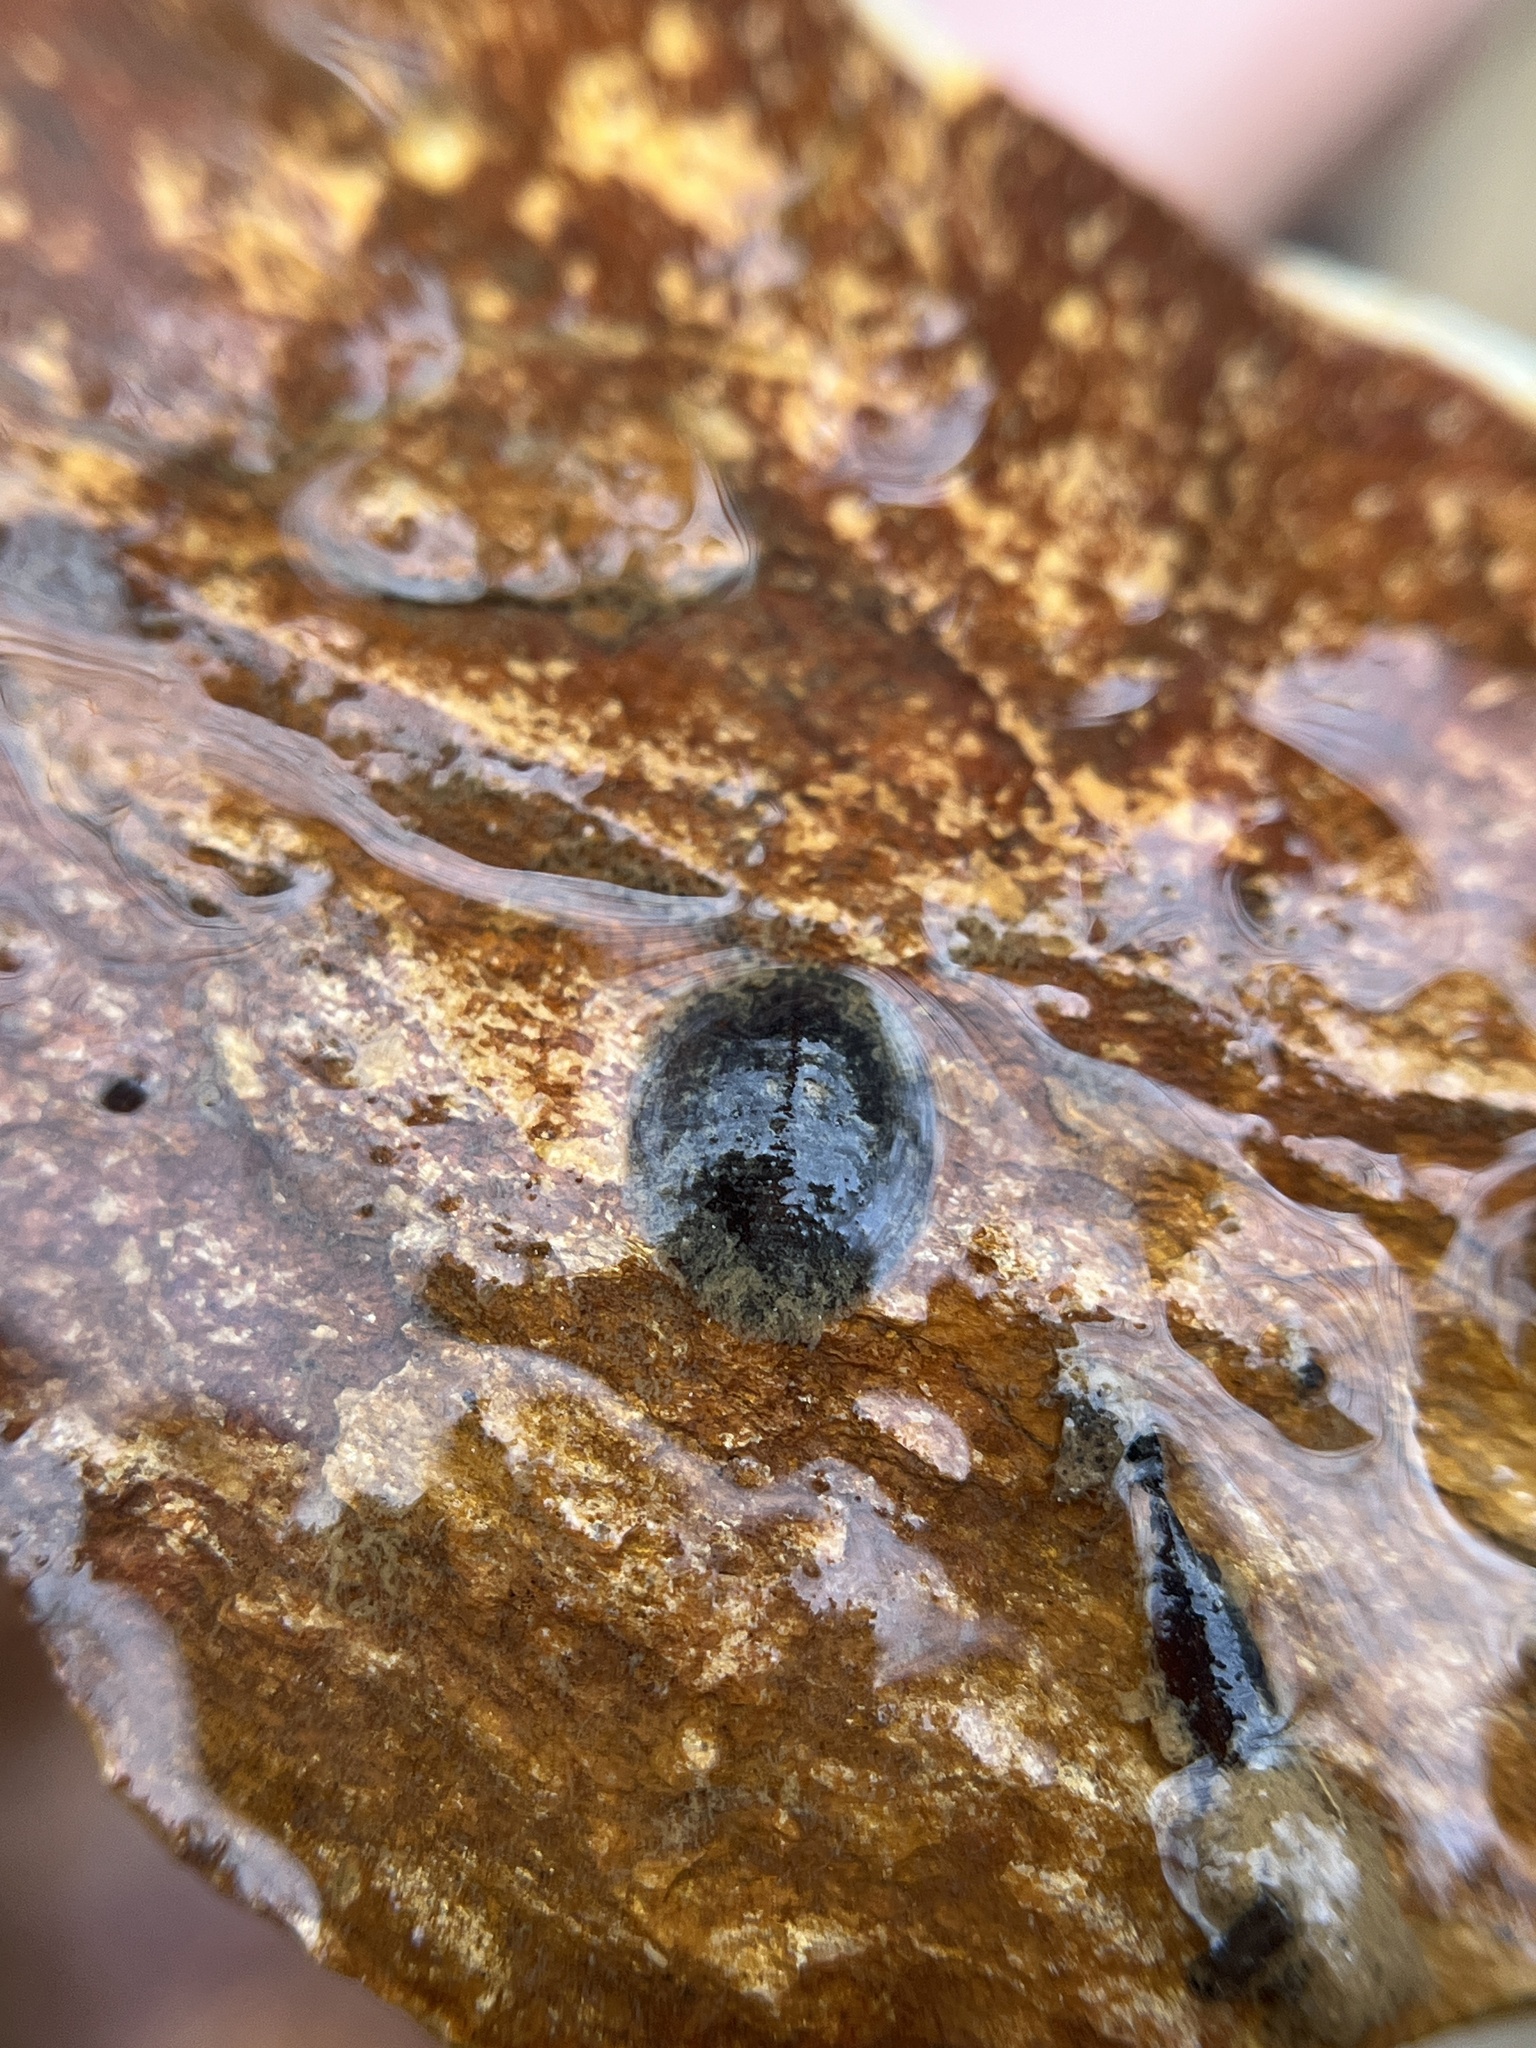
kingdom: Animalia
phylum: Arthropoda
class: Insecta
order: Coleoptera
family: Psephenidae
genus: Psephenus
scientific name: Psephenus herricki
